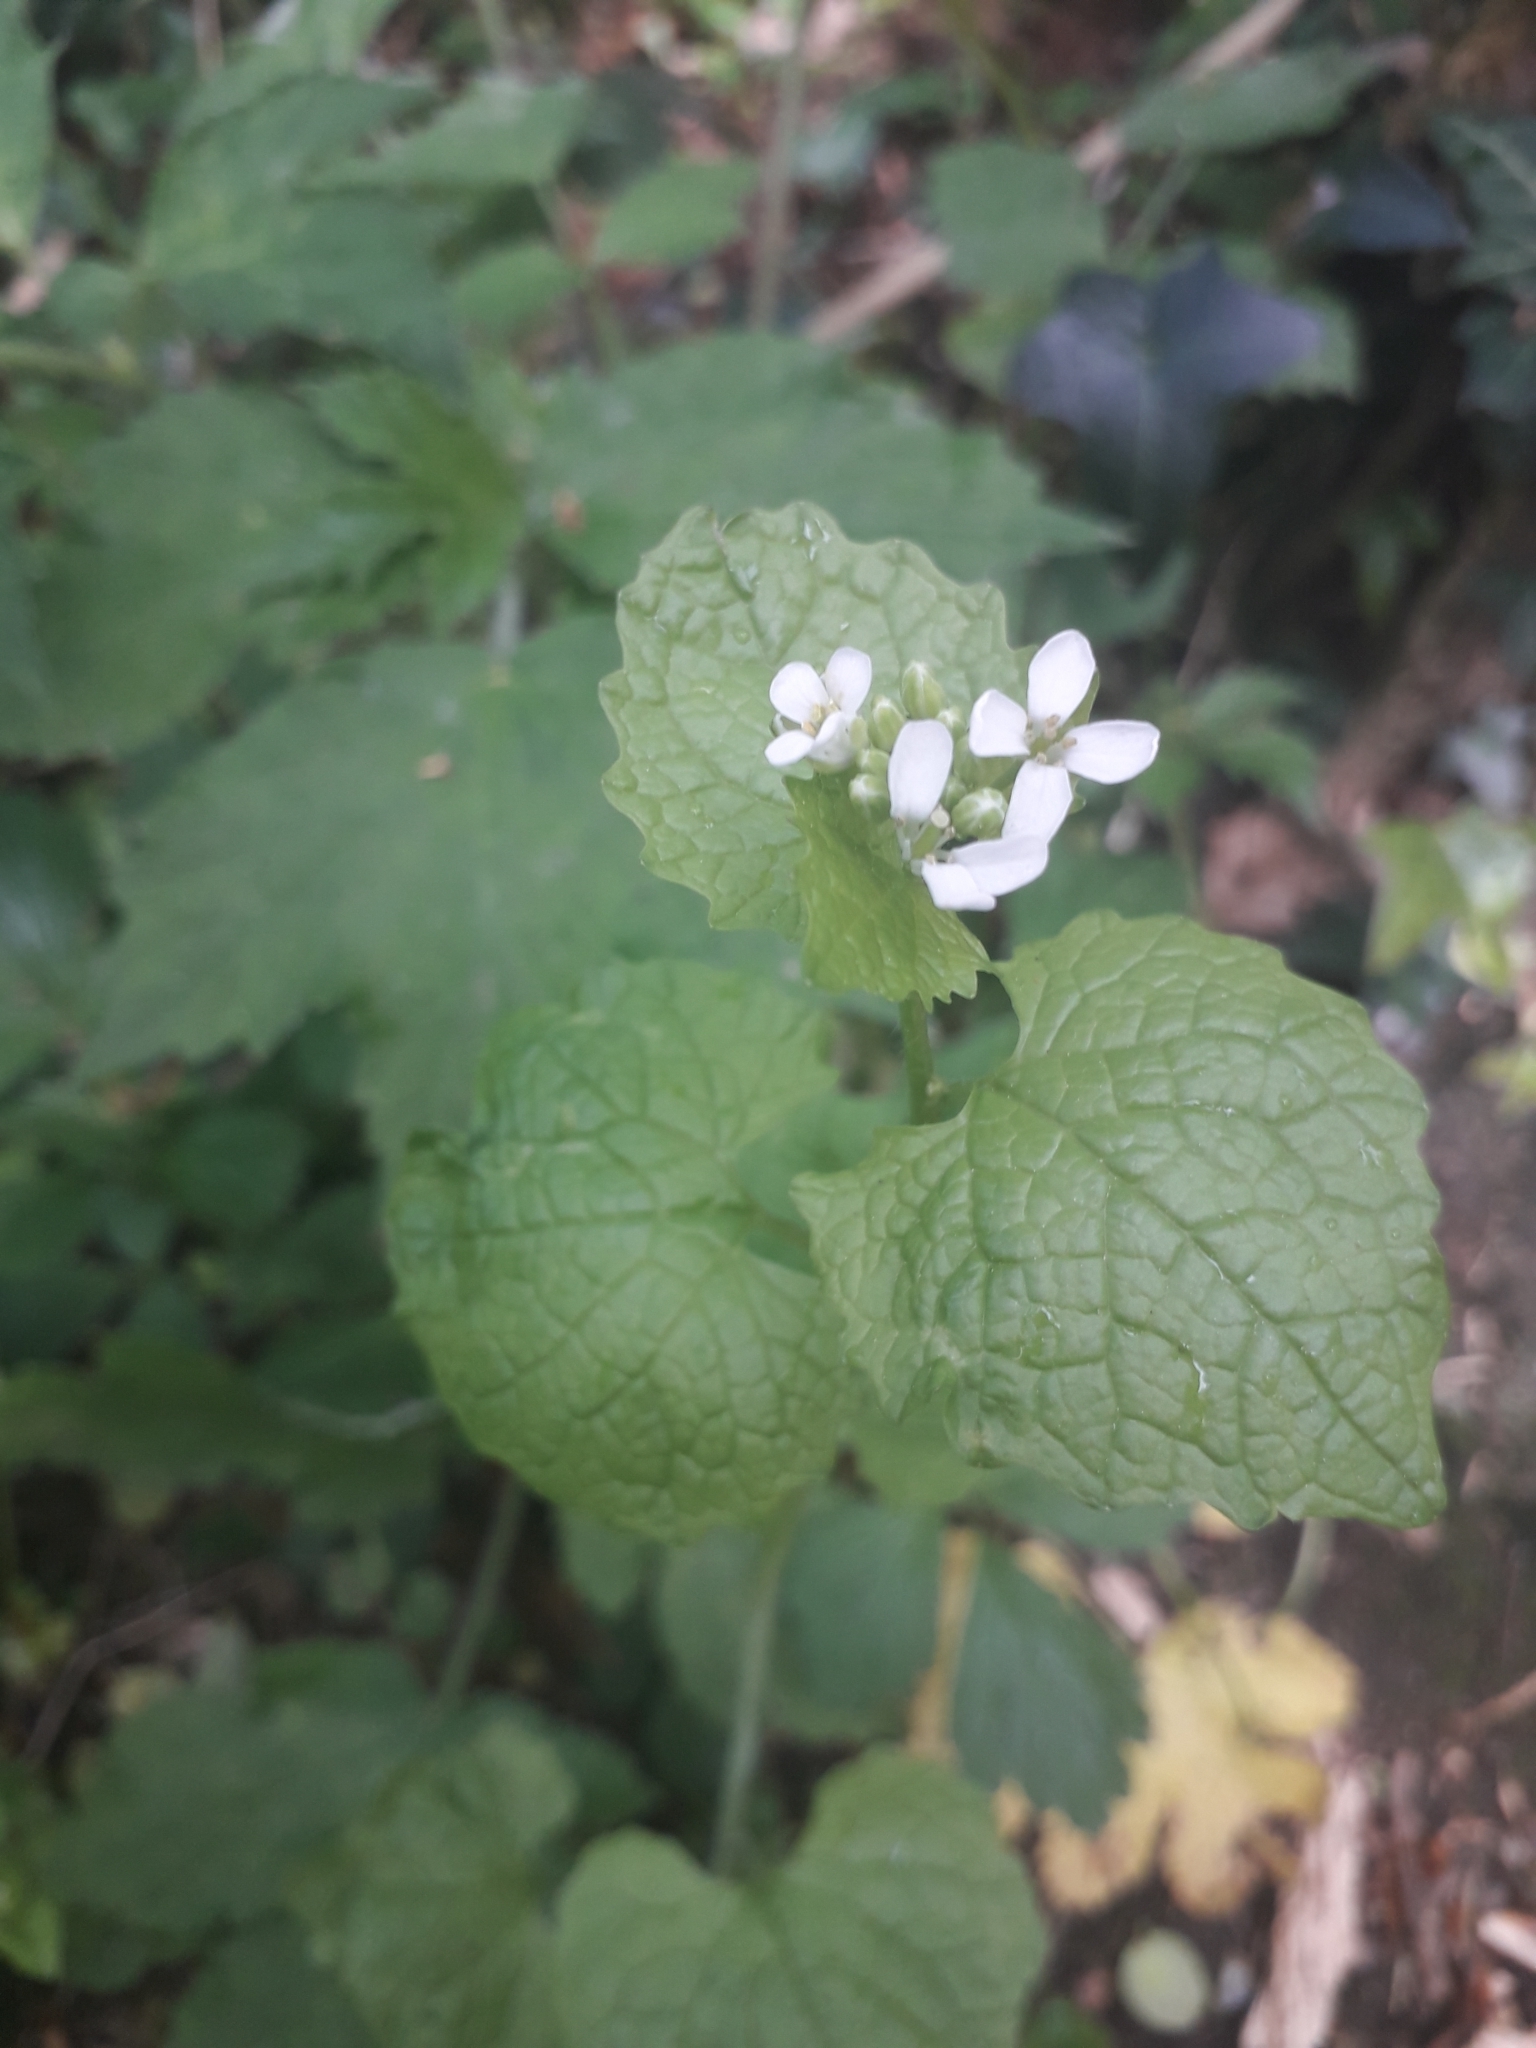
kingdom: Plantae
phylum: Tracheophyta
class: Magnoliopsida
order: Brassicales
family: Brassicaceae
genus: Alliaria
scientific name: Alliaria petiolata
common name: Garlic mustard
